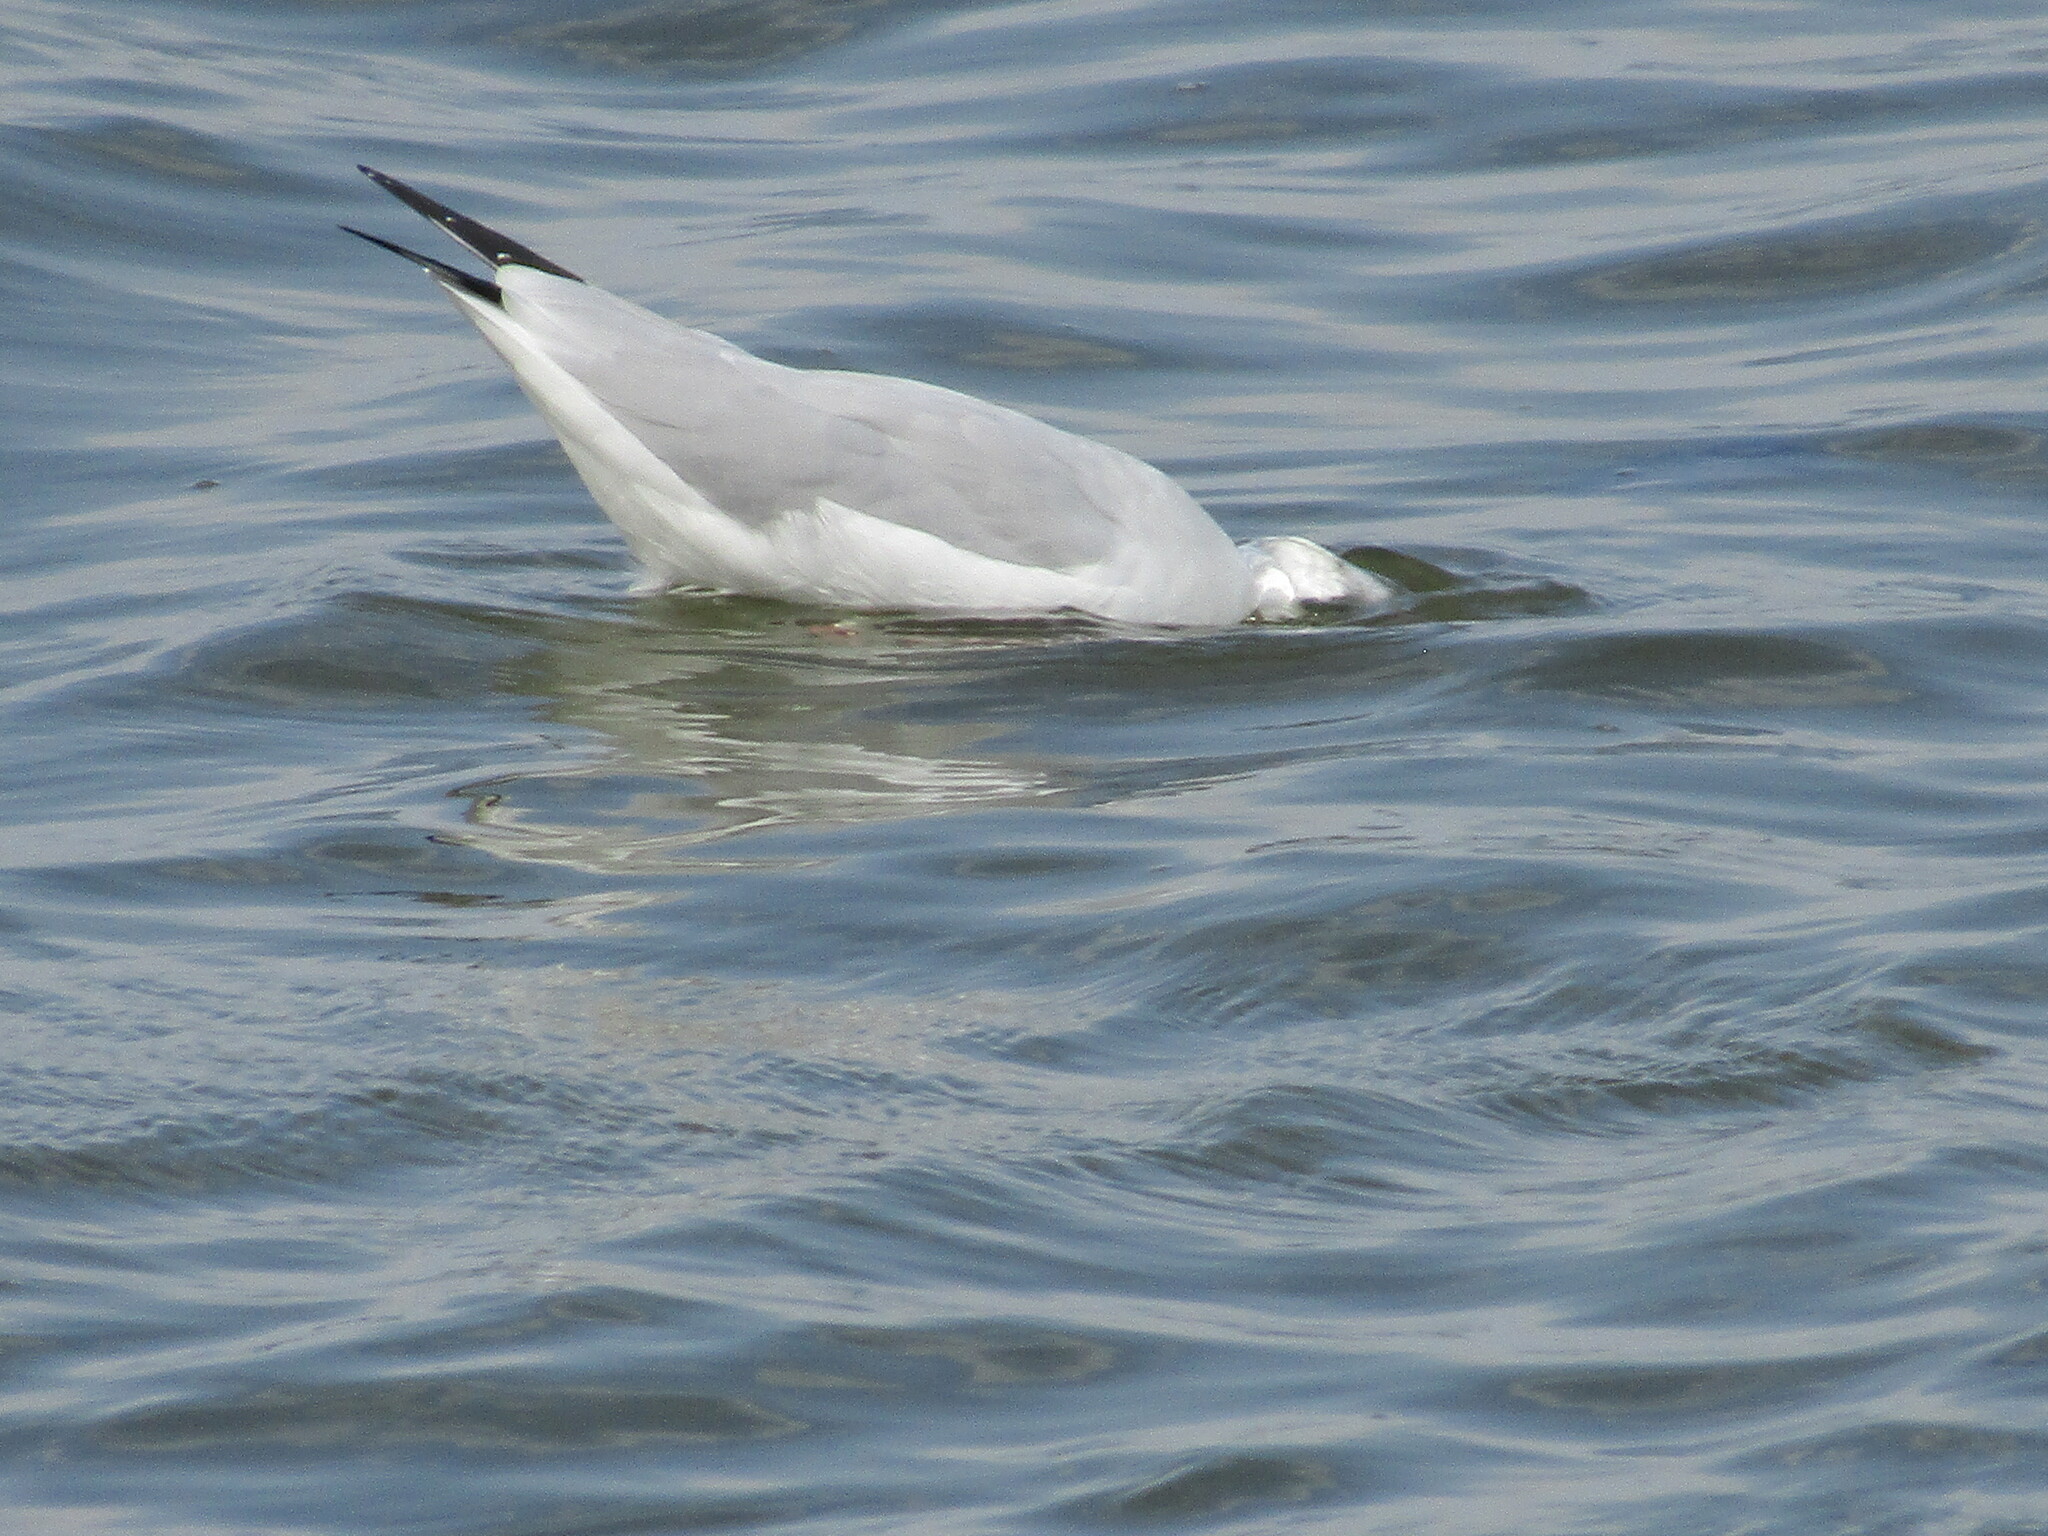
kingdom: Animalia
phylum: Chordata
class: Aves
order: Charadriiformes
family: Laridae
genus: Chroicocephalus
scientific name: Chroicocephalus ridibundus
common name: Black-headed gull
